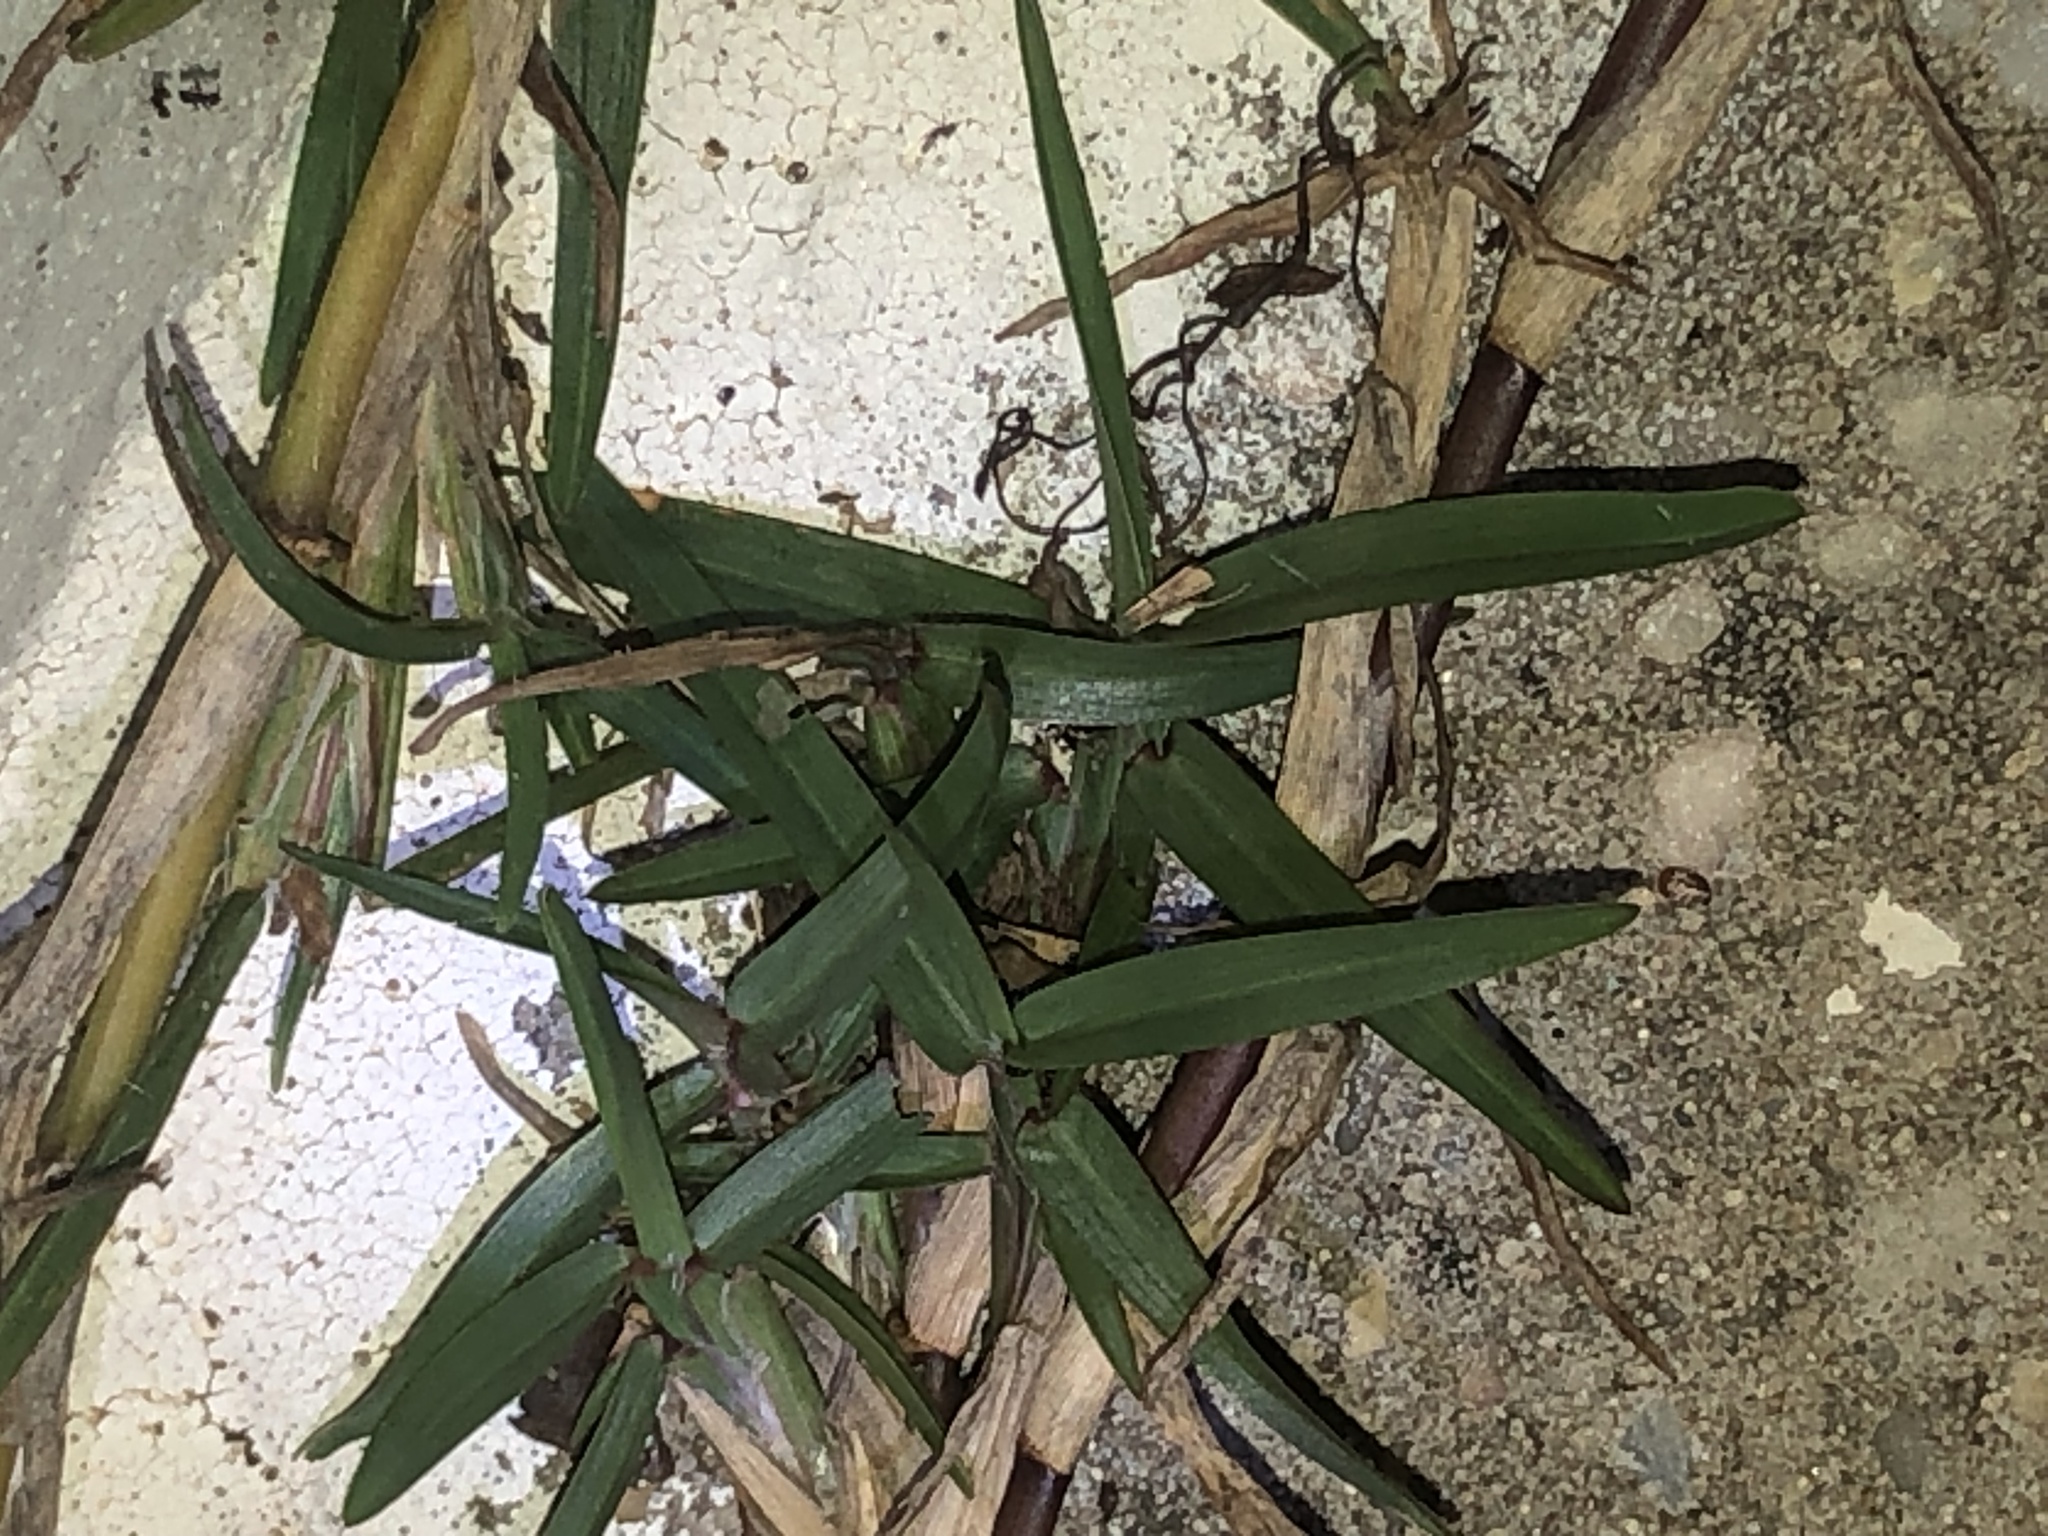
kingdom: Plantae
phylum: Tracheophyta
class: Liliopsida
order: Poales
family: Poaceae
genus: Stenotaphrum
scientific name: Stenotaphrum secundatum
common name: St. augustine grass
